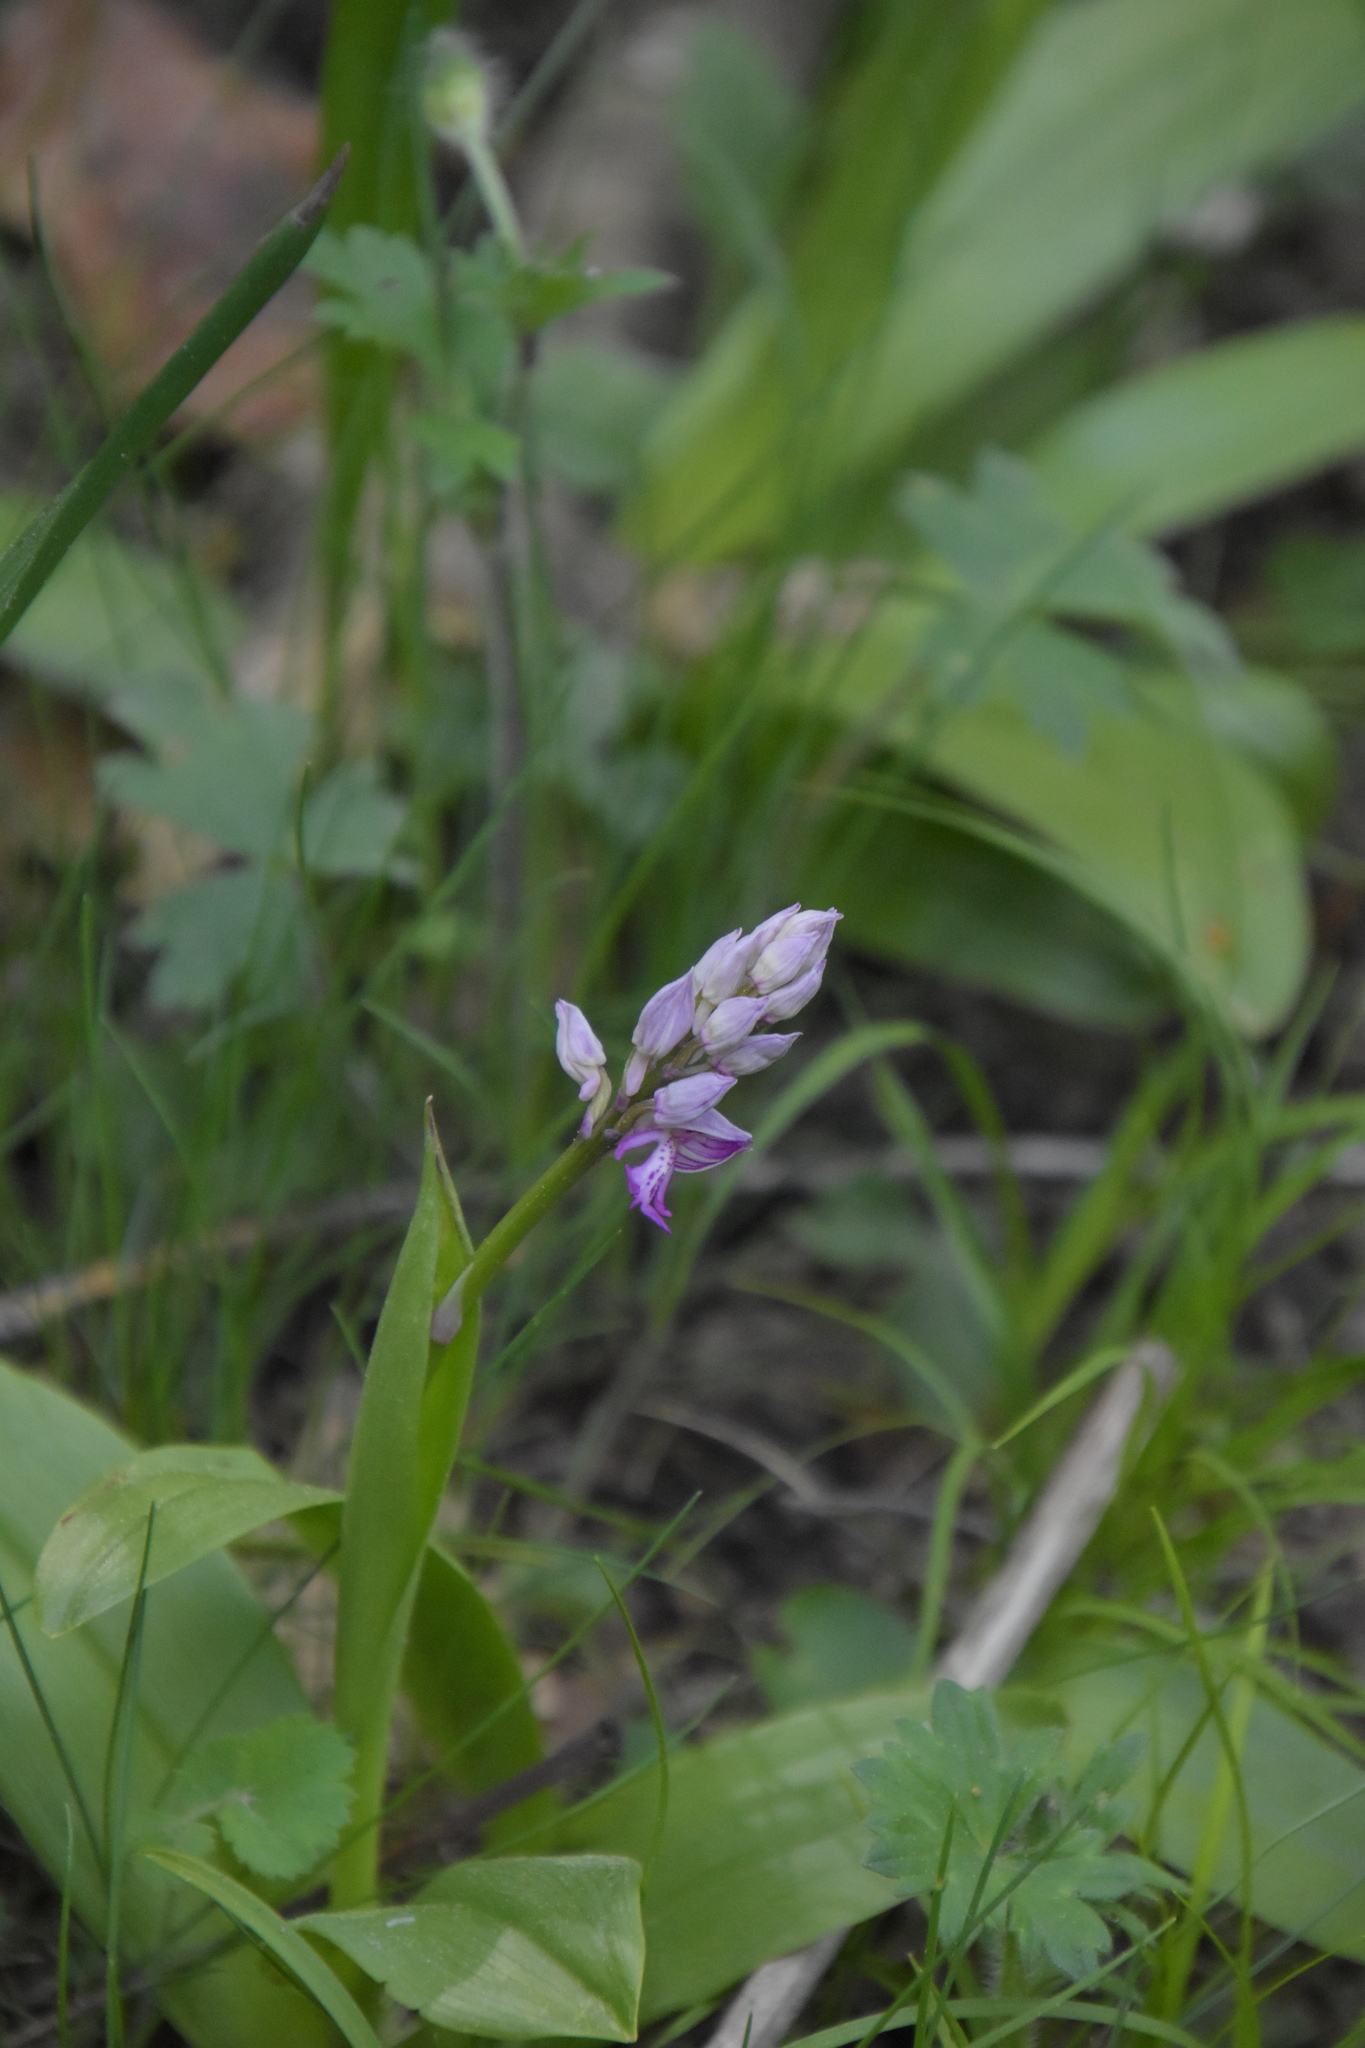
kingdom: Plantae
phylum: Tracheophyta
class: Liliopsida
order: Asparagales
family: Orchidaceae
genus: Orchis
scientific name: Orchis militaris
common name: Military orchid
